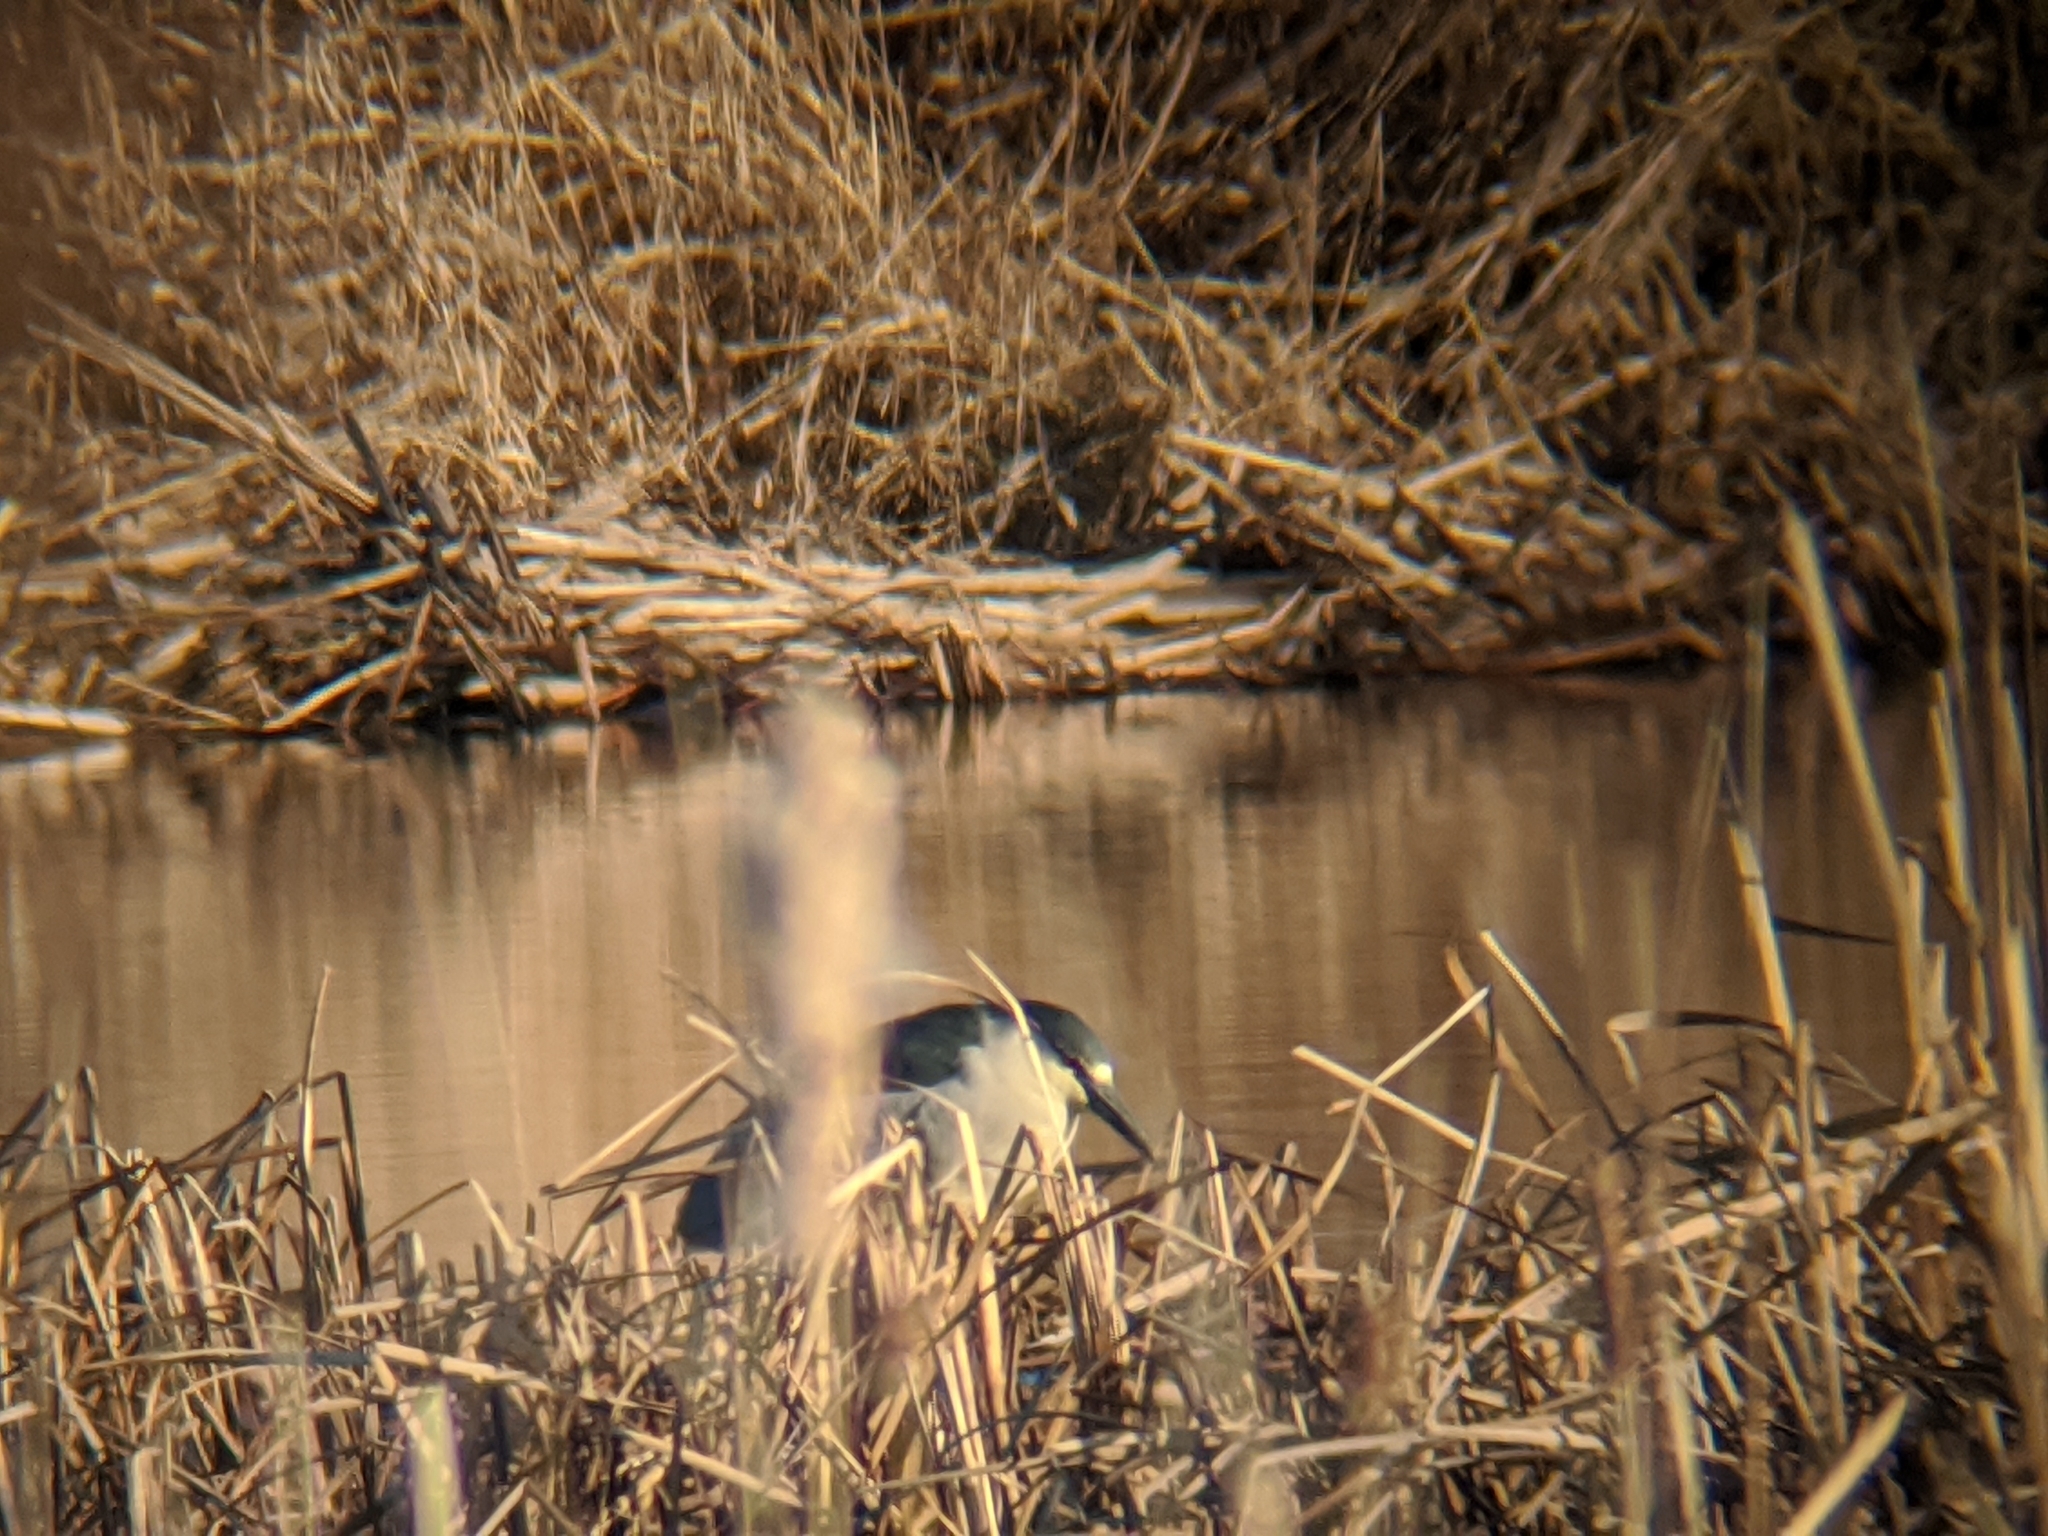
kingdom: Animalia
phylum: Chordata
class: Aves
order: Pelecaniformes
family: Ardeidae
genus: Nycticorax
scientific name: Nycticorax nycticorax
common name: Black-crowned night heron
